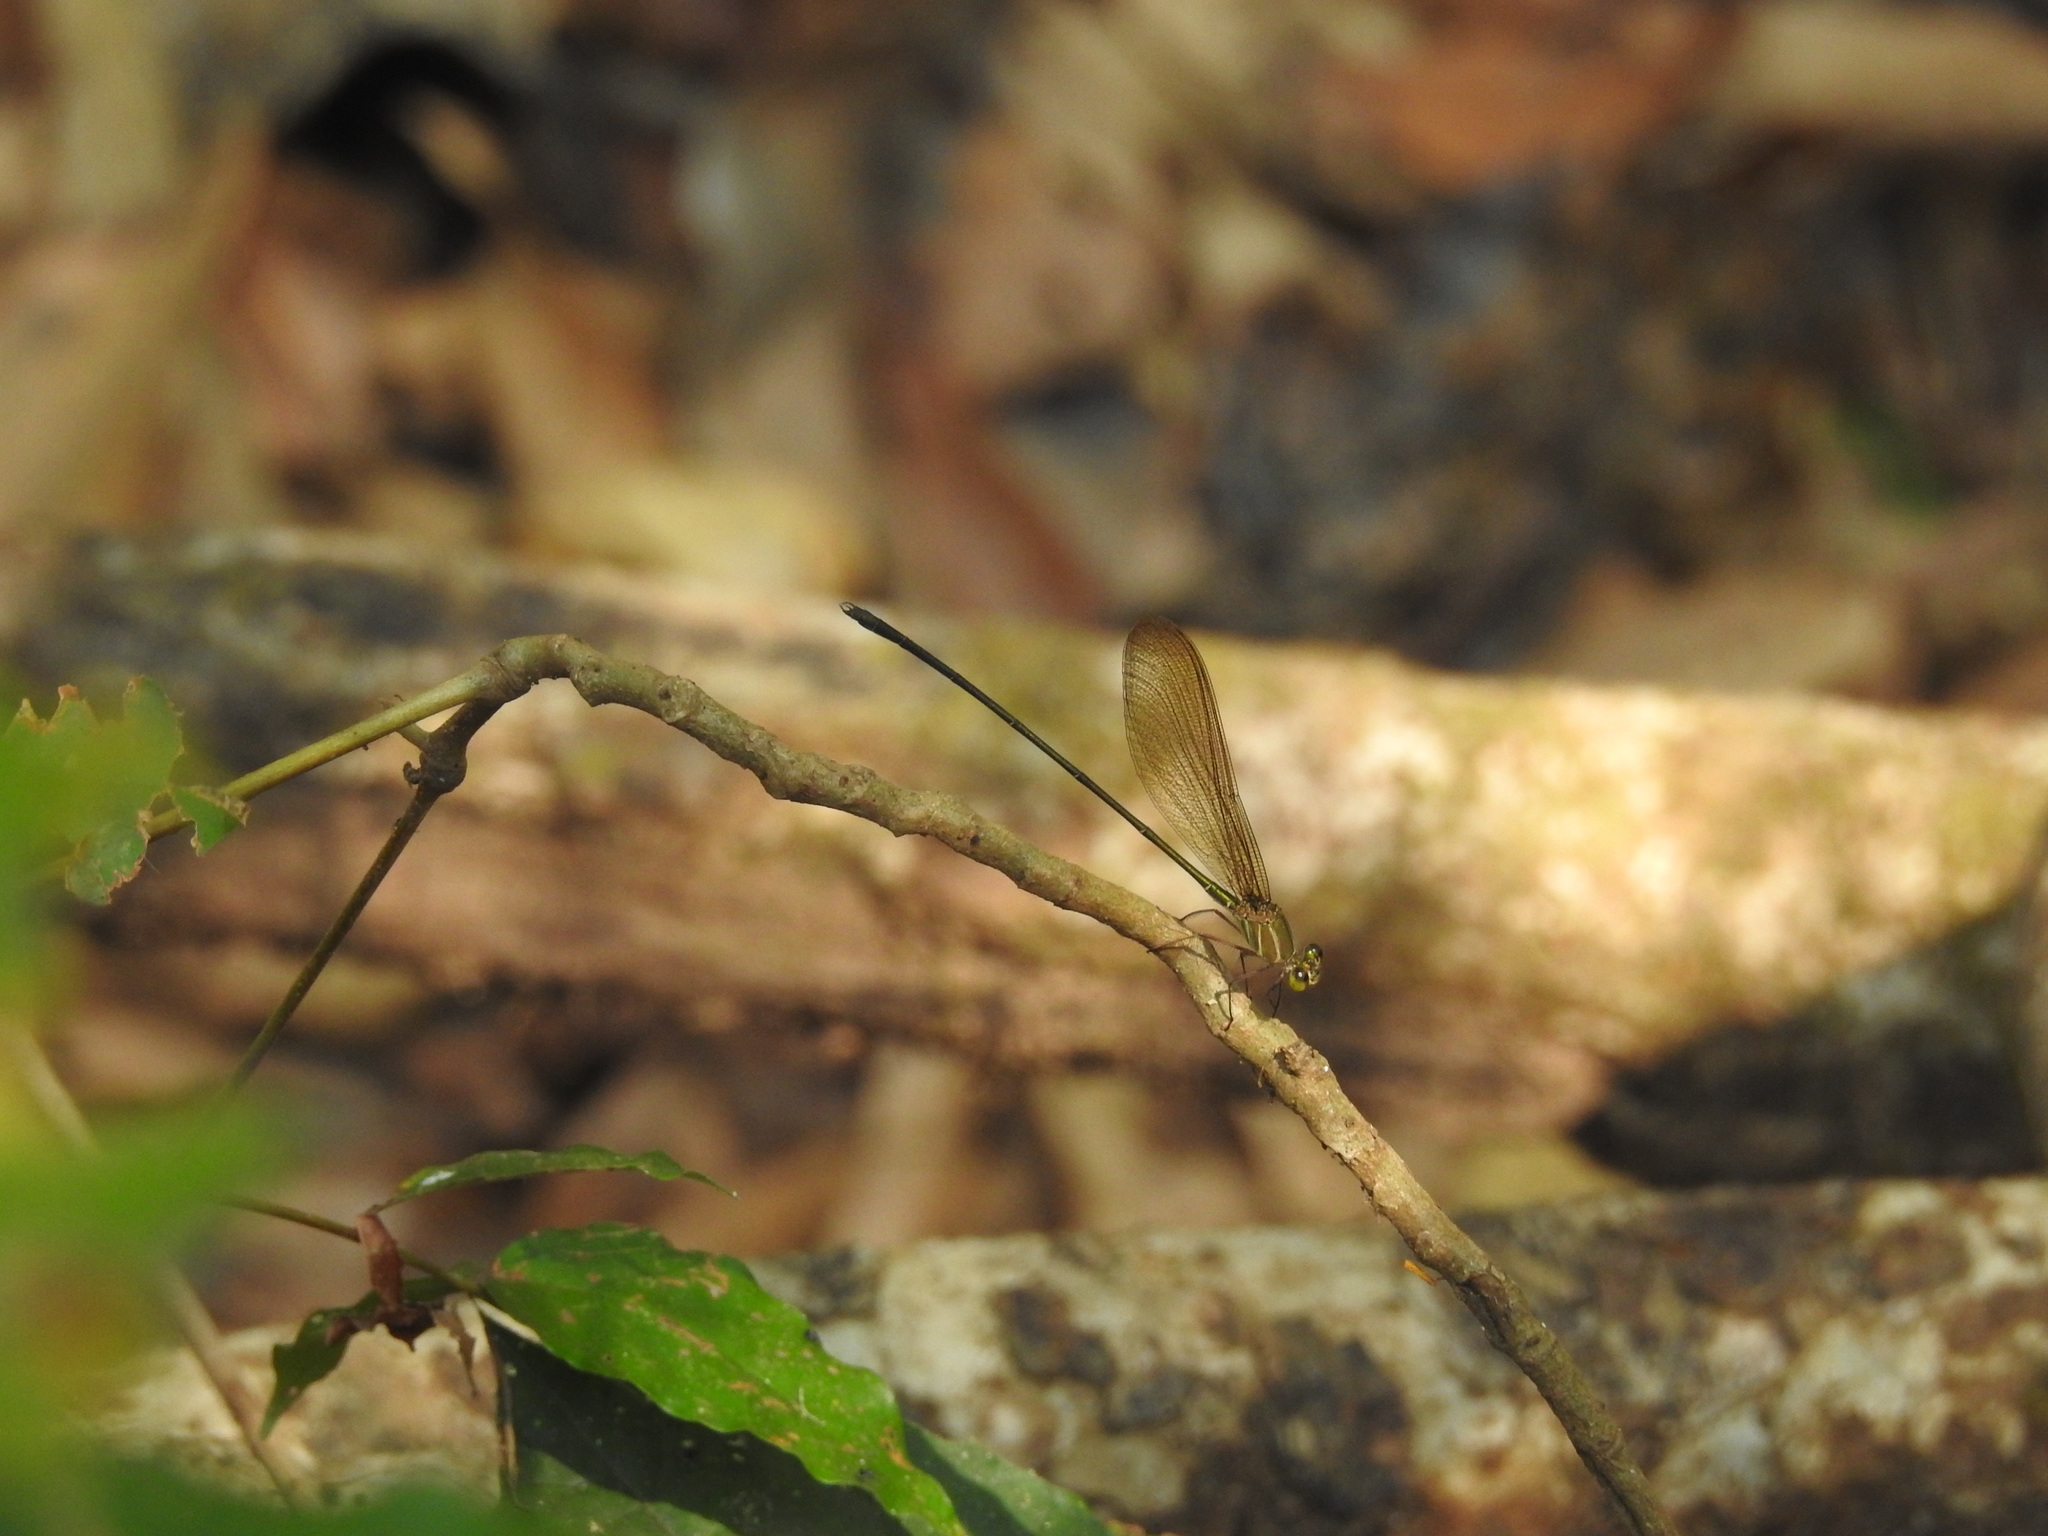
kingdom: Animalia
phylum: Arthropoda
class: Insecta
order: Odonata
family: Calopterygidae
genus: Vestalis
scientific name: Vestalis gracilis
